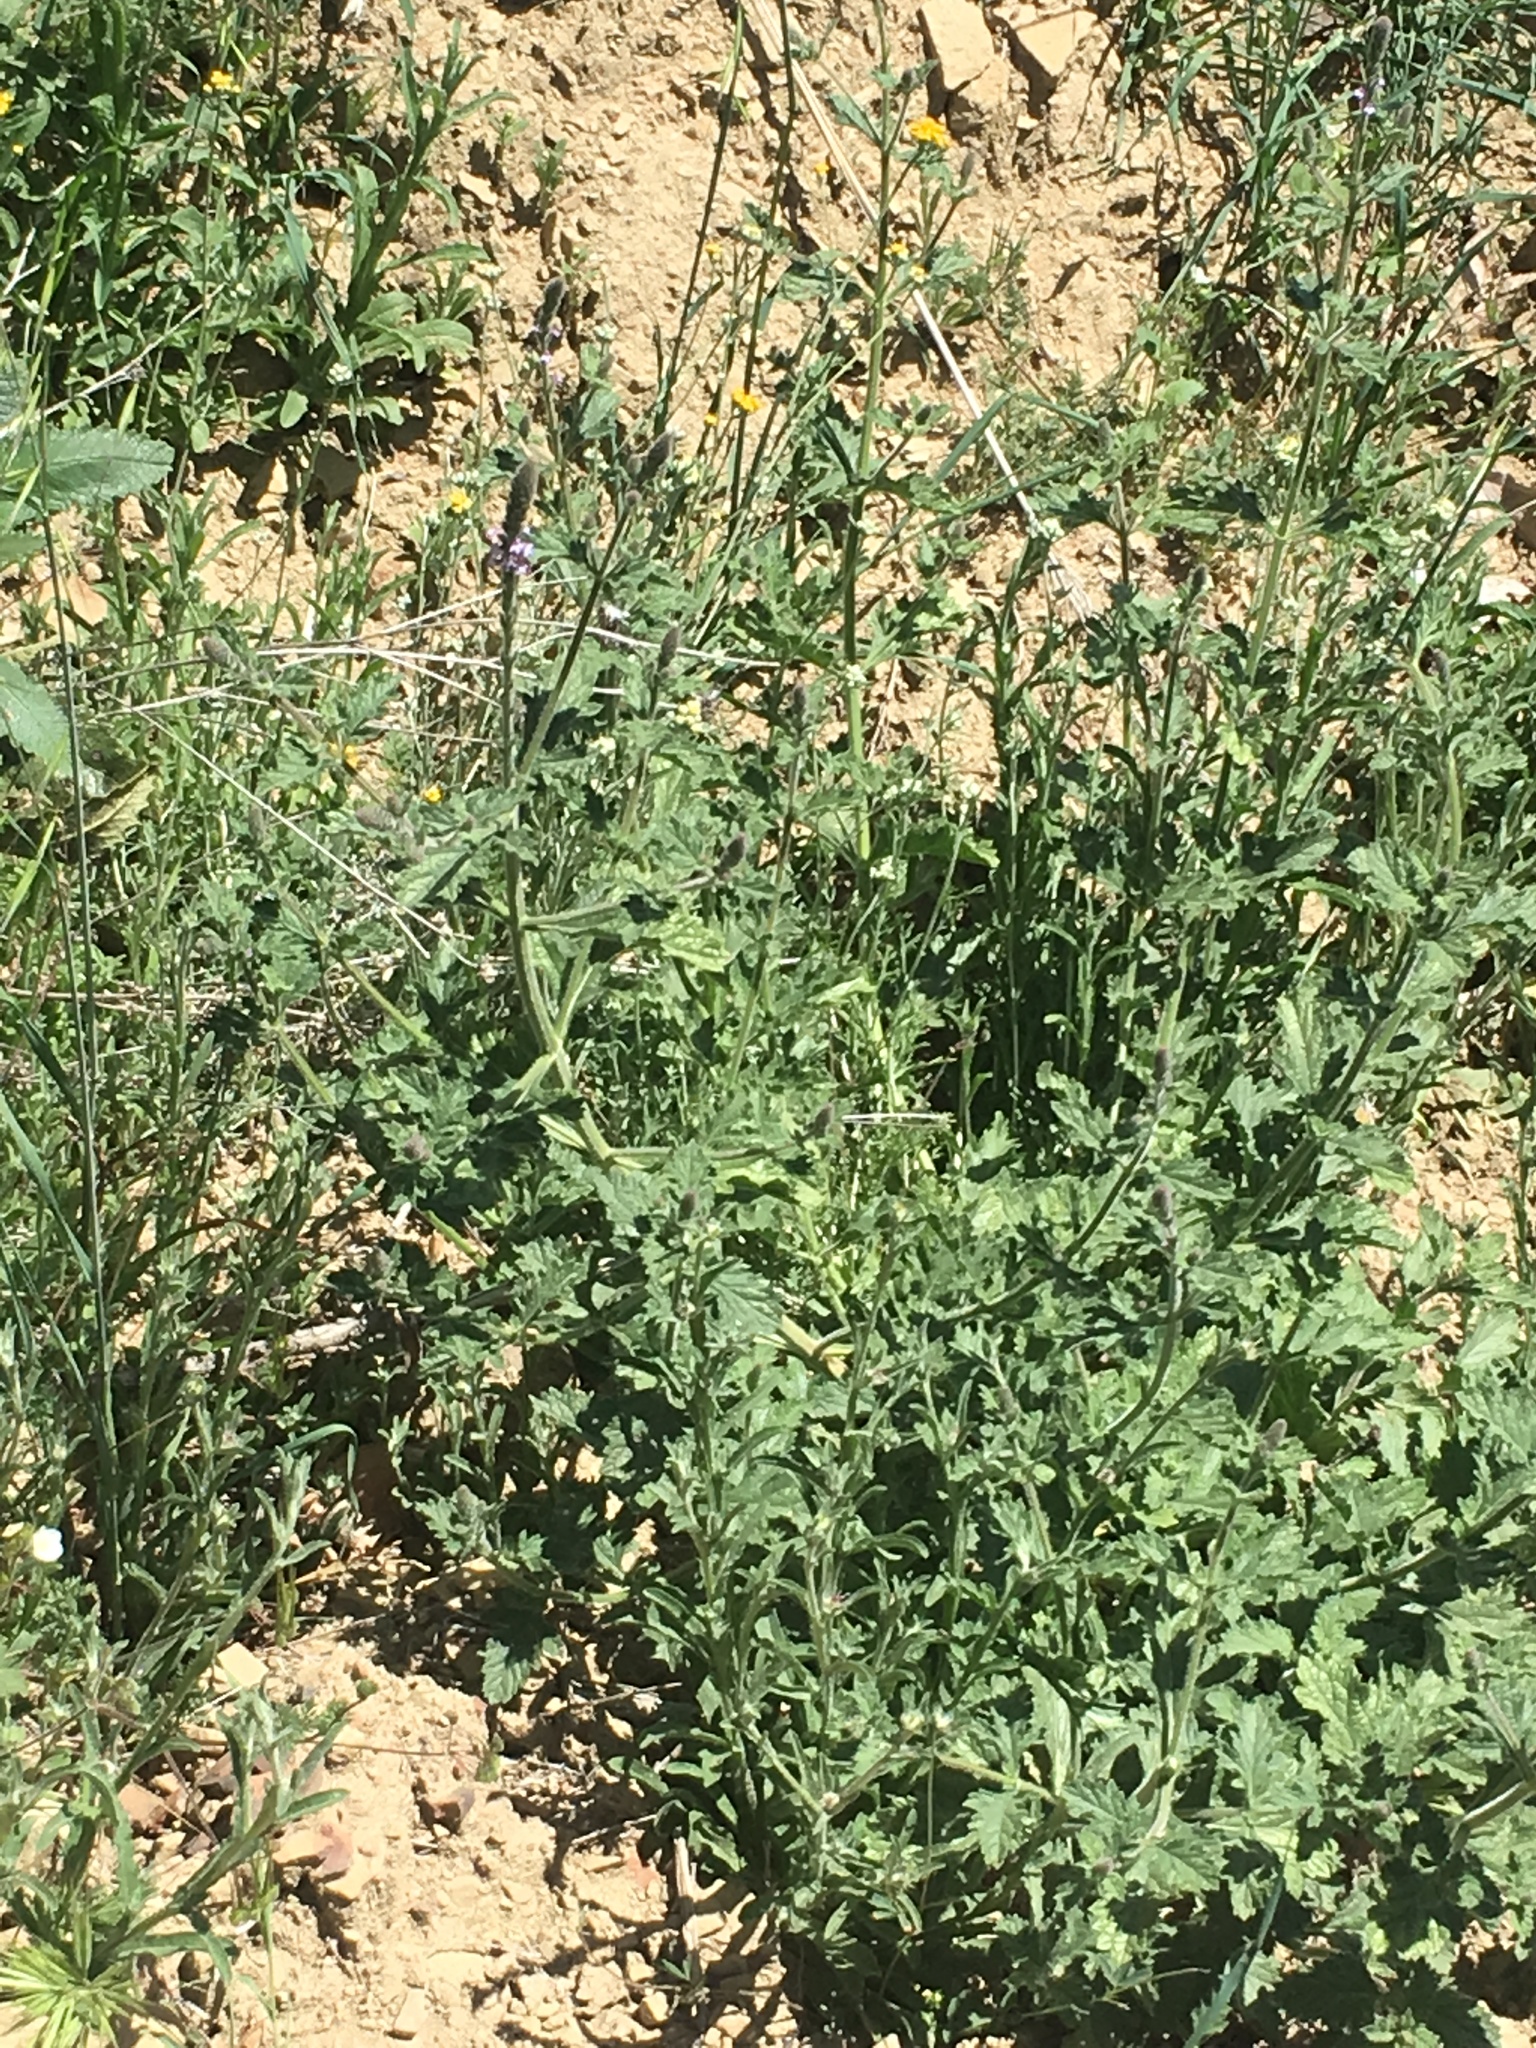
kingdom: Plantae
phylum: Tracheophyta
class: Magnoliopsida
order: Lamiales
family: Verbenaceae
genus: Verbena
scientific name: Verbena lasiostachys
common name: Vervain
